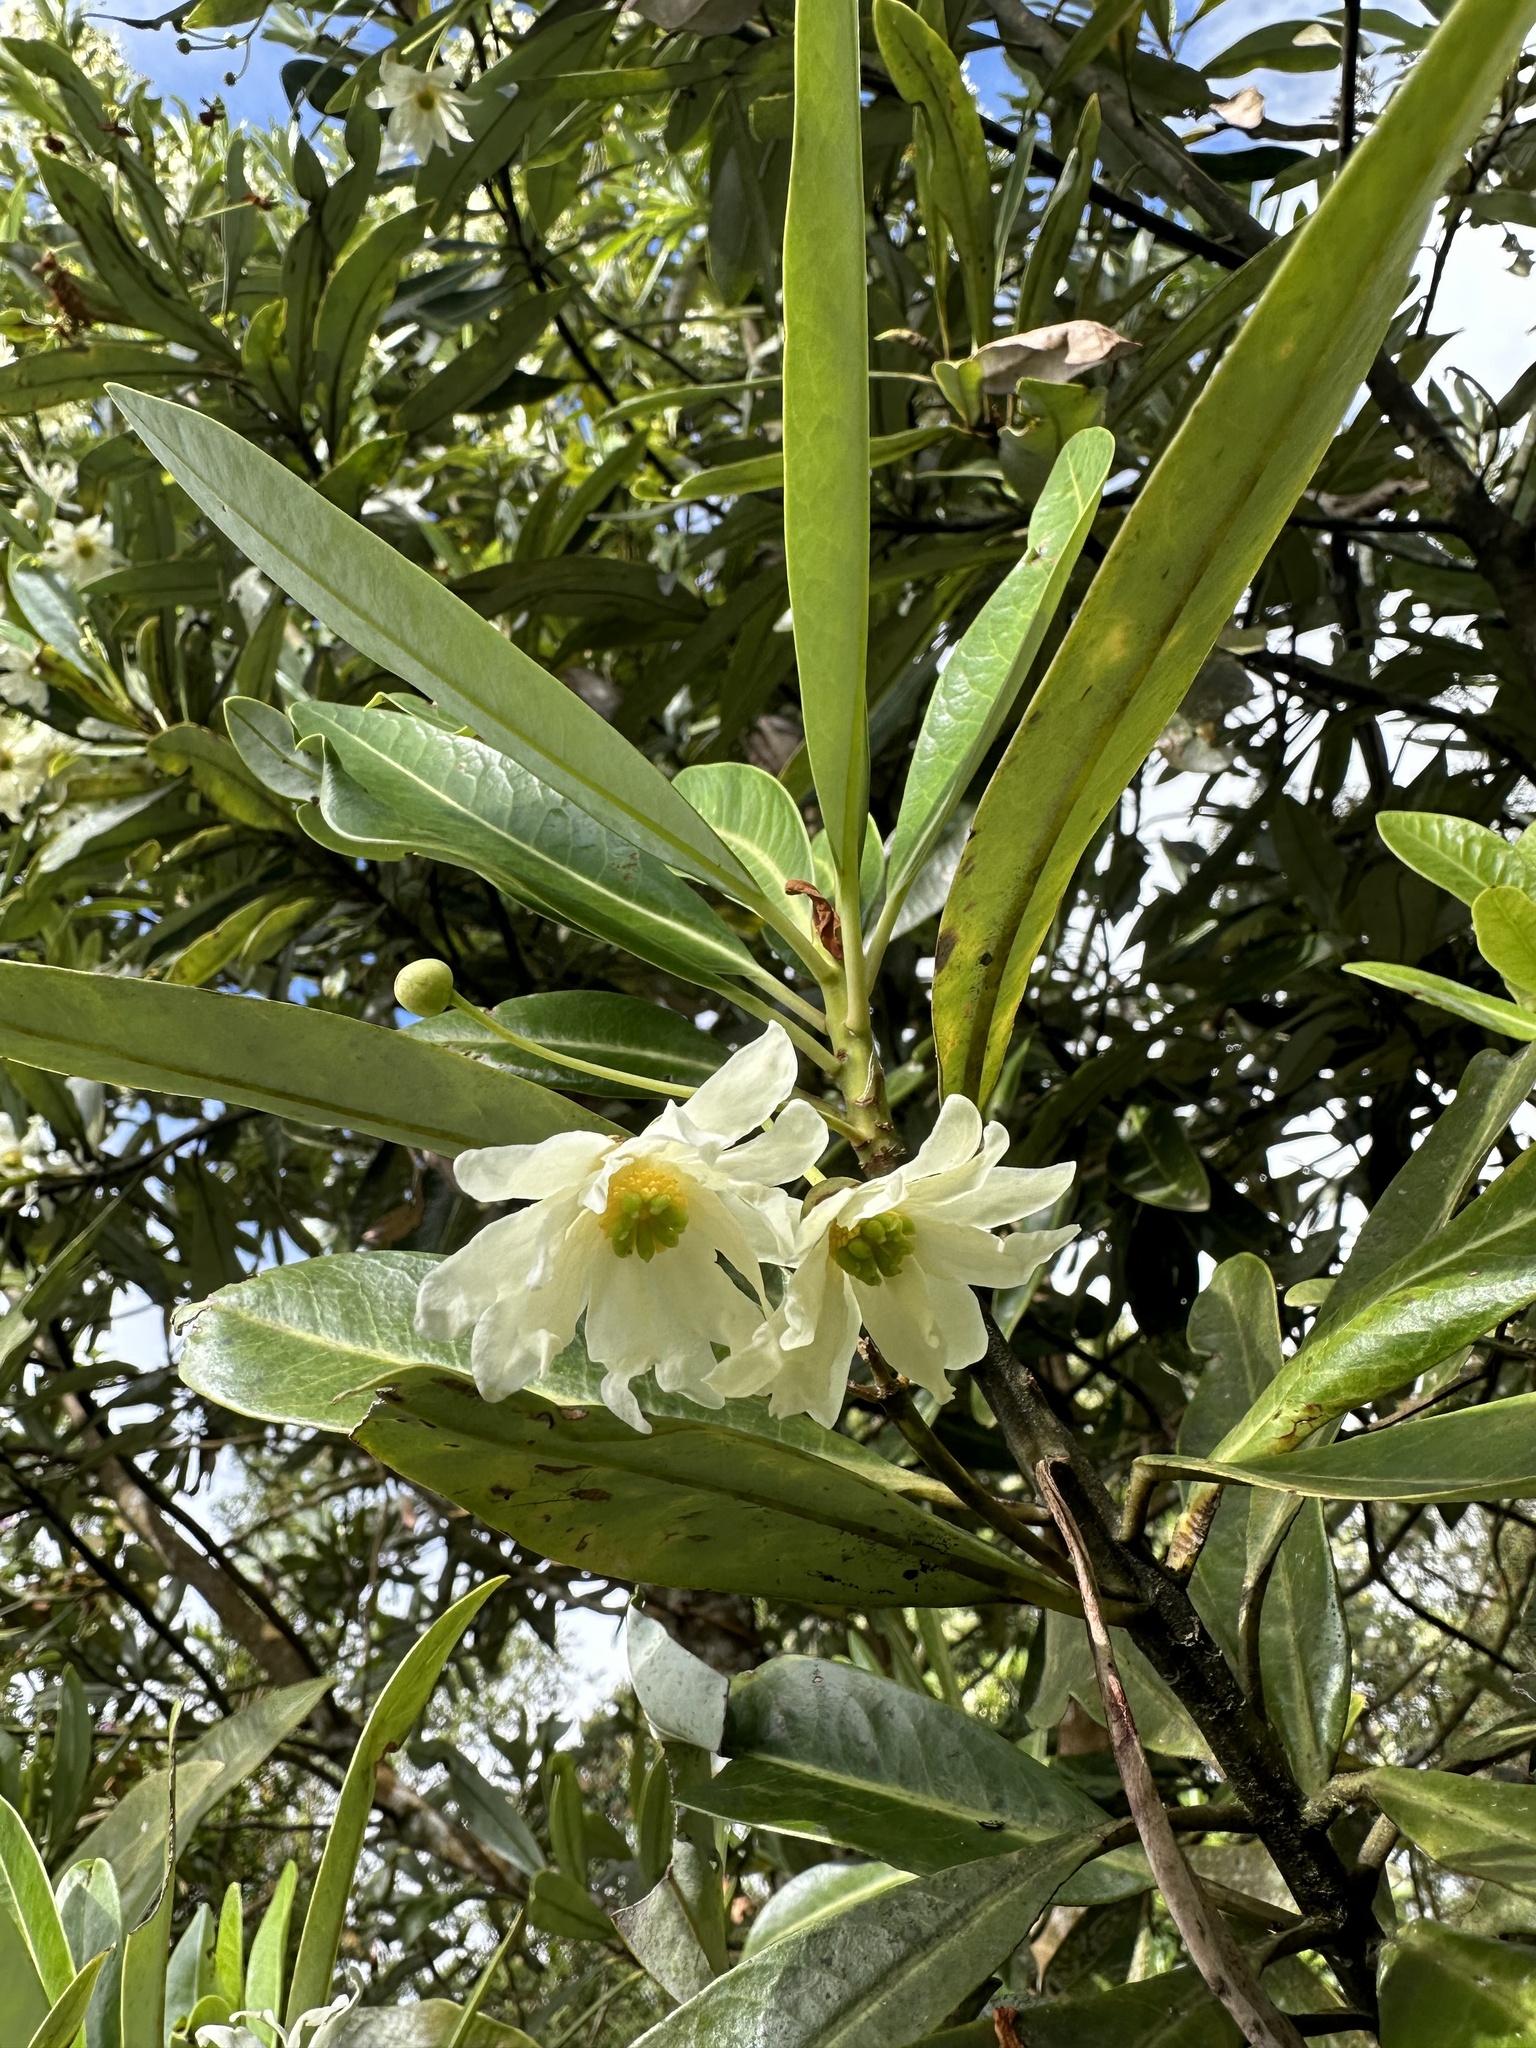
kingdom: Plantae
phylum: Tracheophyta
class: Magnoliopsida
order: Canellales
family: Winteraceae
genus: Drimys
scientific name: Drimys granadensis
